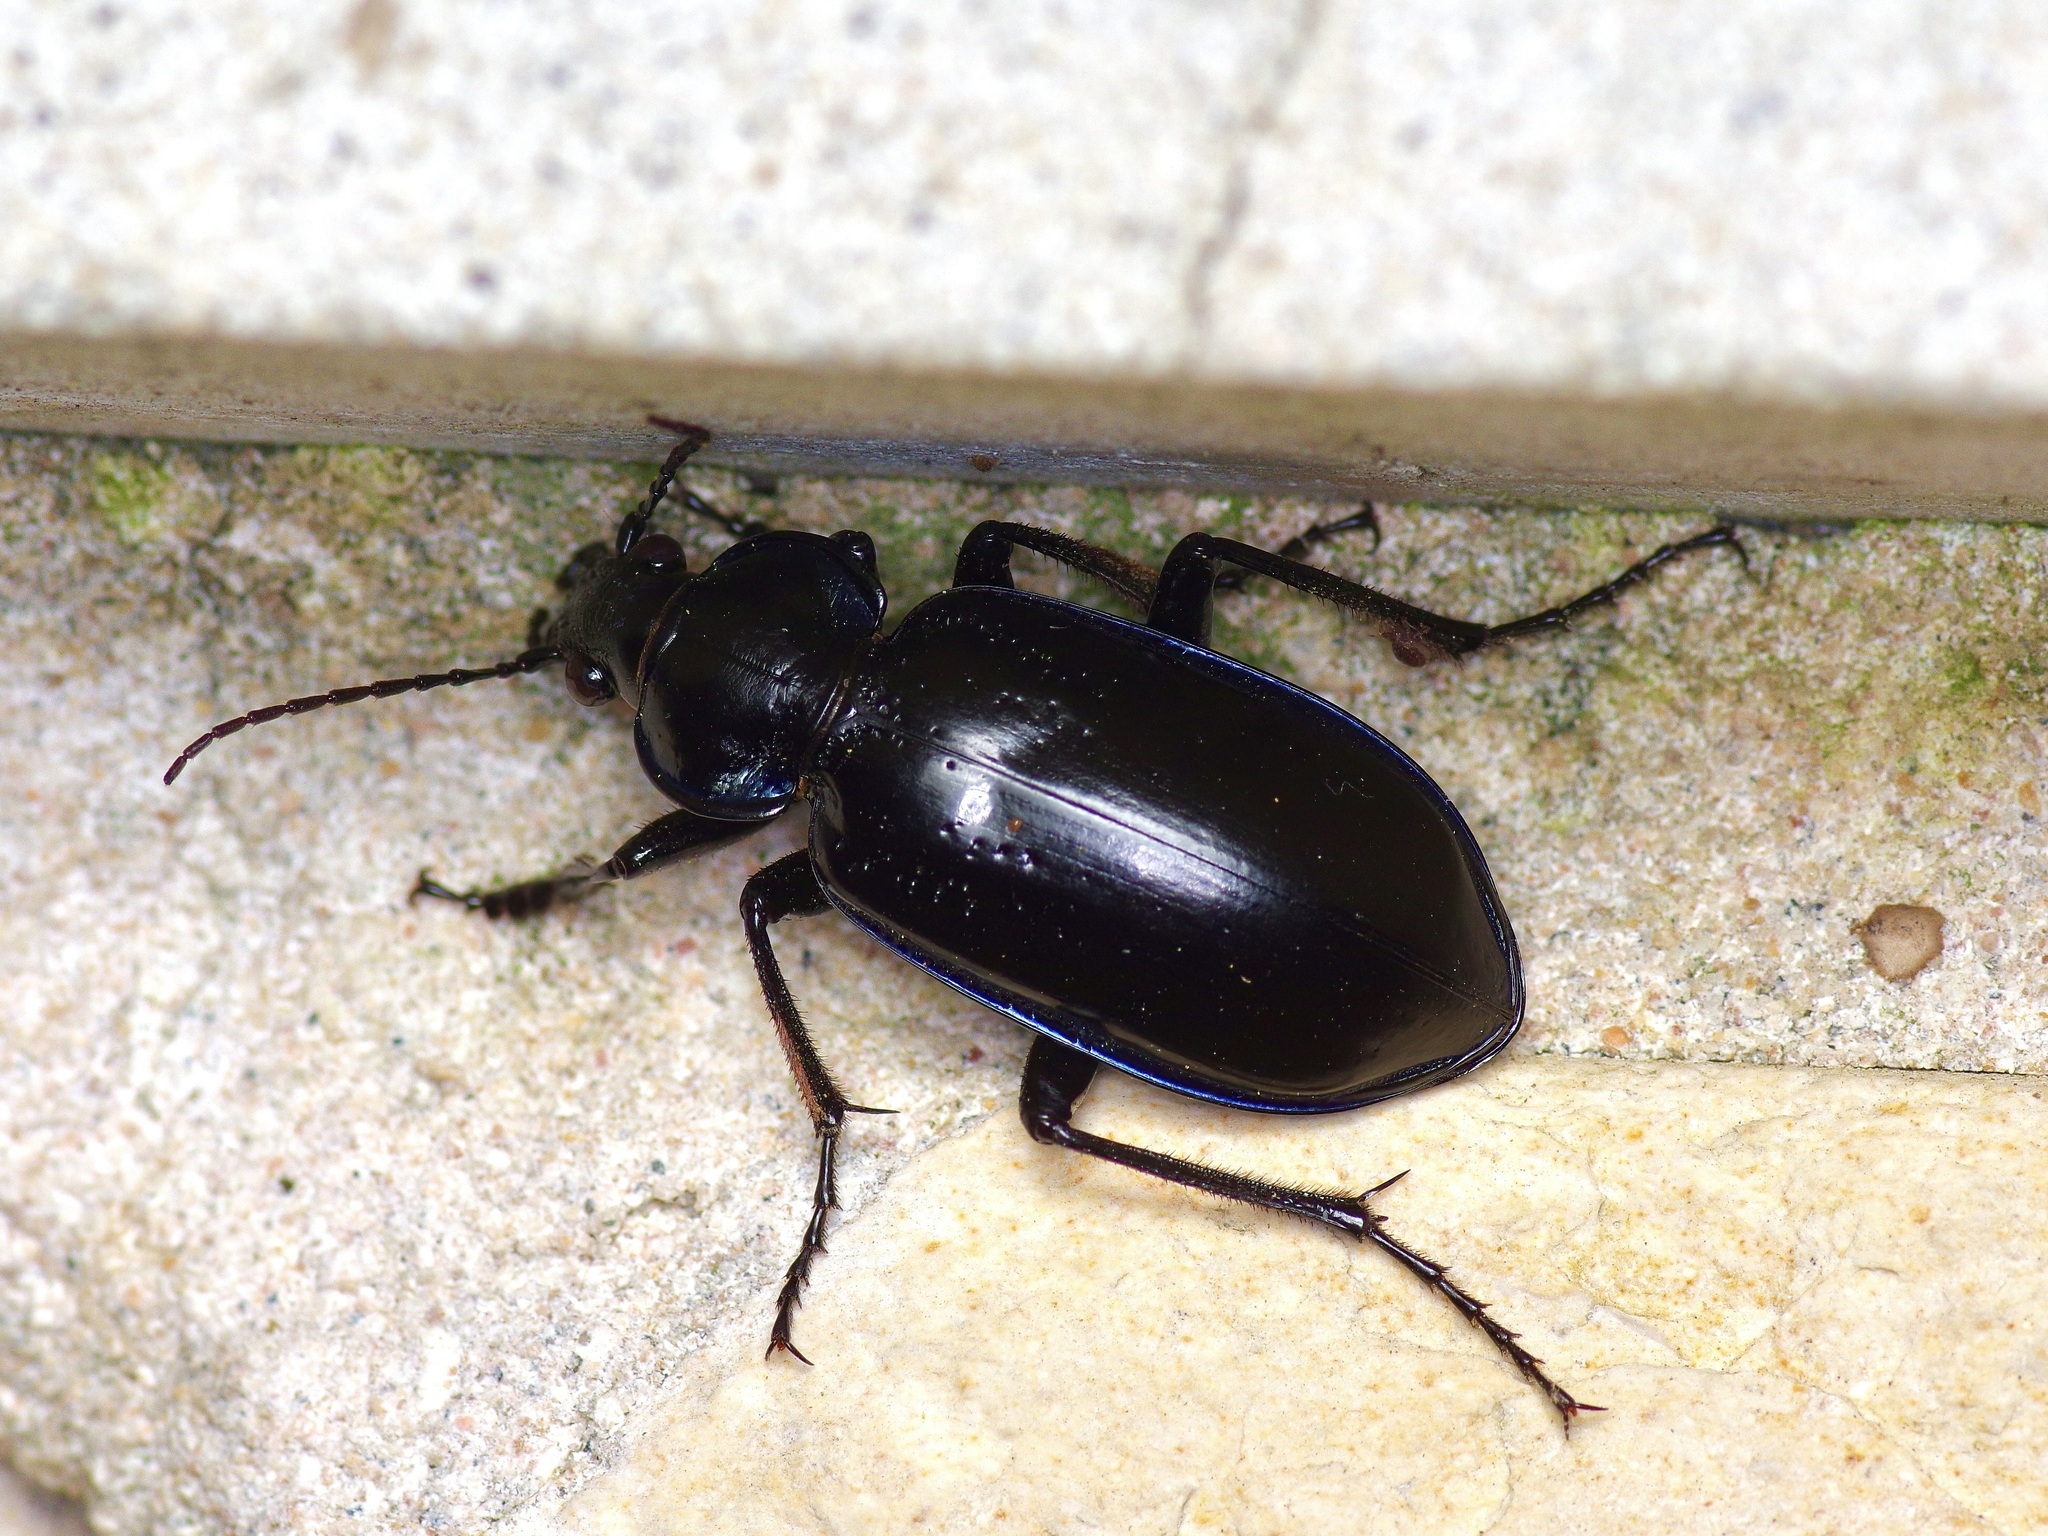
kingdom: Animalia
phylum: Arthropoda
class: Insecta
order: Coleoptera
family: Carabidae
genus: Calosoma
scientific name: Calosoma macrum
